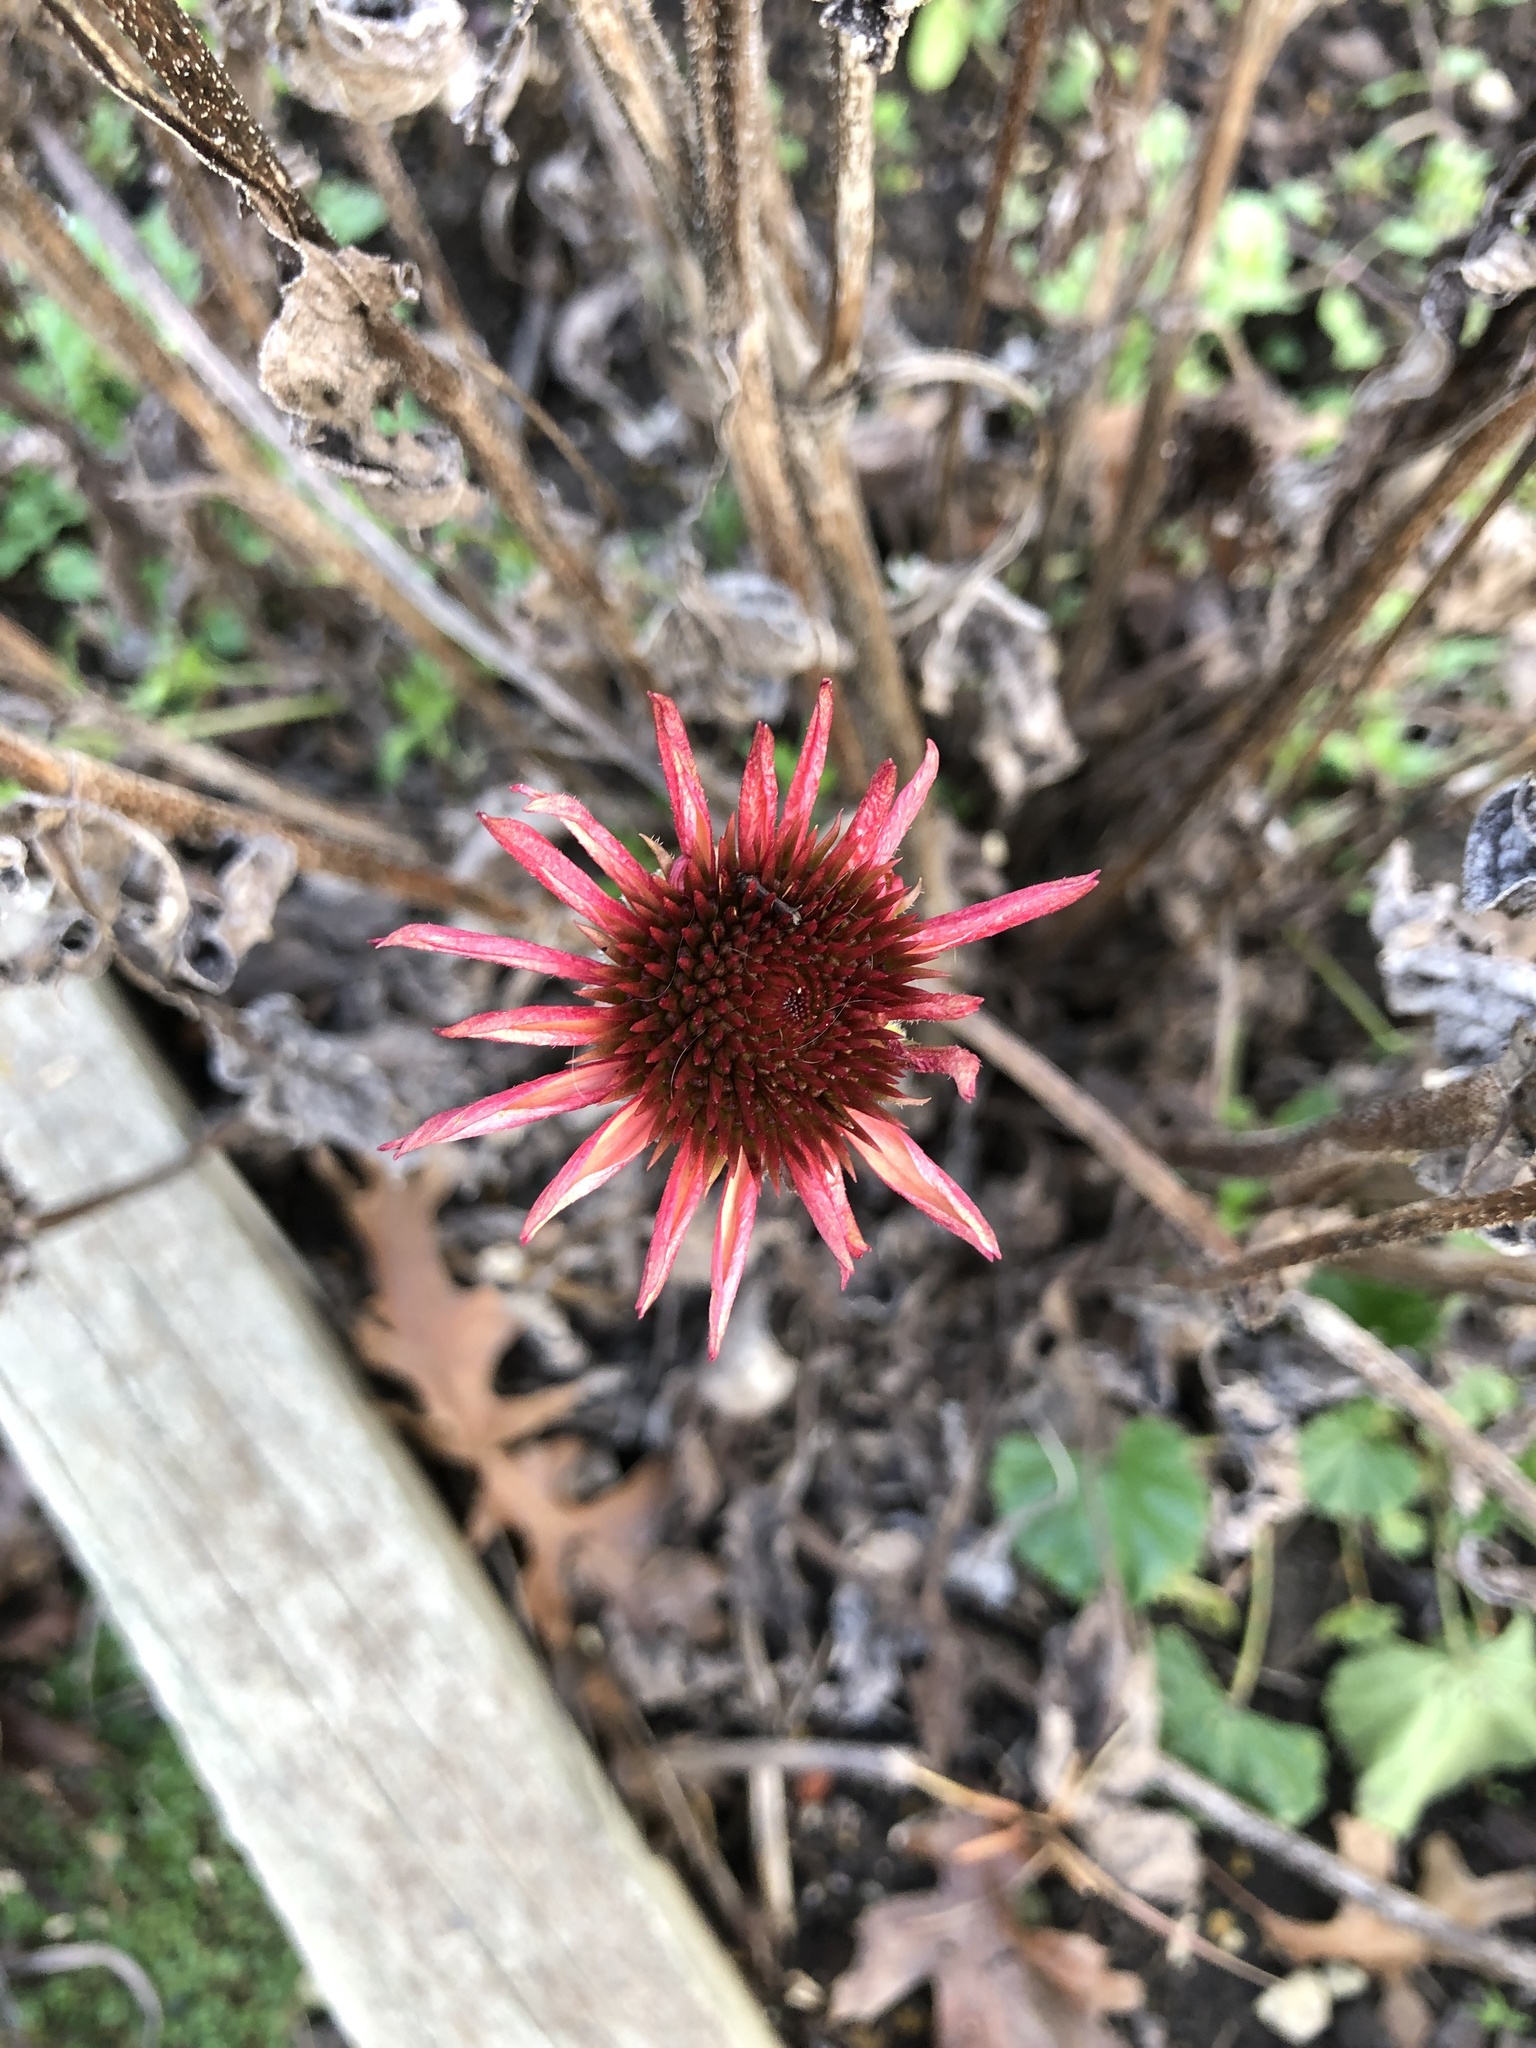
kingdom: Plantae
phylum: Tracheophyta
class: Magnoliopsida
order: Asterales
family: Asteraceae
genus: Echinacea
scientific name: Echinacea purpurea
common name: Broad-leaved purple coneflower
